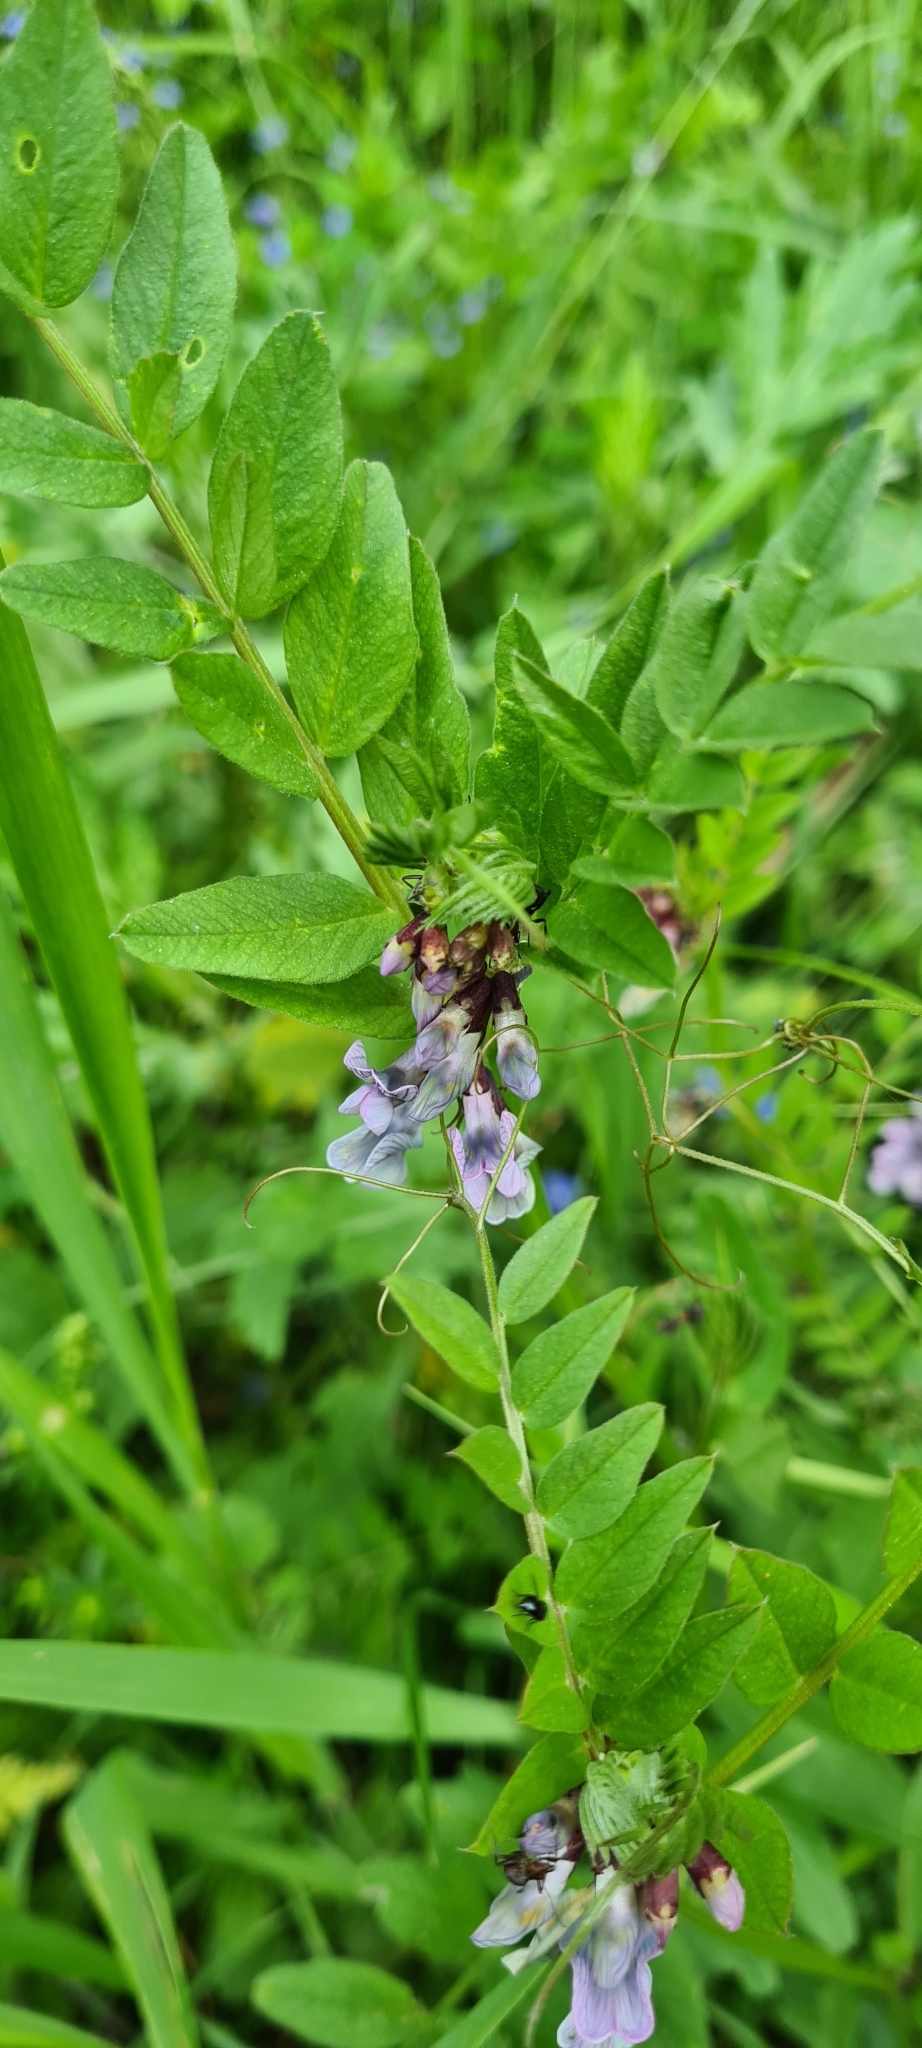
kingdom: Plantae
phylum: Tracheophyta
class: Magnoliopsida
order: Fabales
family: Fabaceae
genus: Vicia
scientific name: Vicia sepium
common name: Bush vetch
